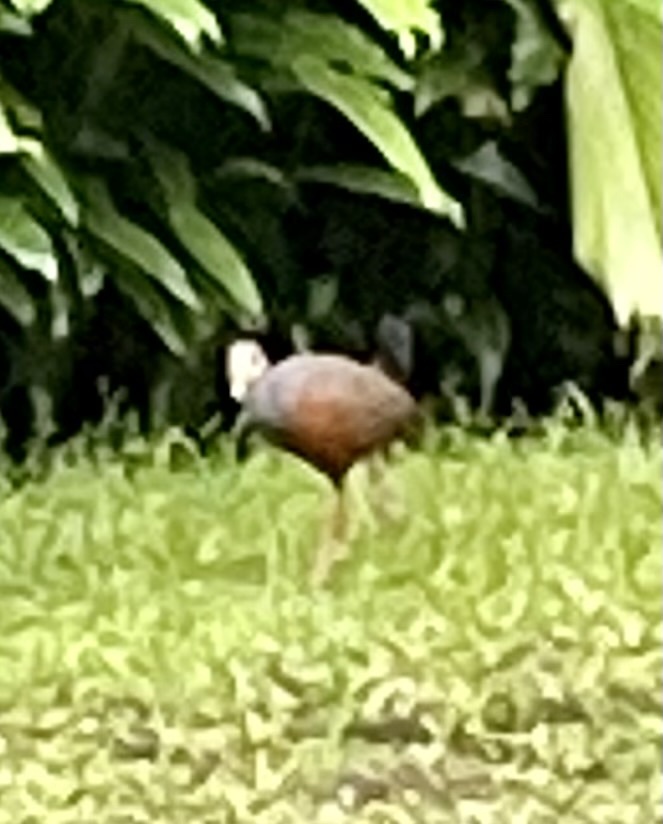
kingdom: Animalia
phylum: Chordata
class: Aves
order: Gruiformes
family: Rallidae
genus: Aramides
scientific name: Aramides cajanea
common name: Gray-necked wood-rail
